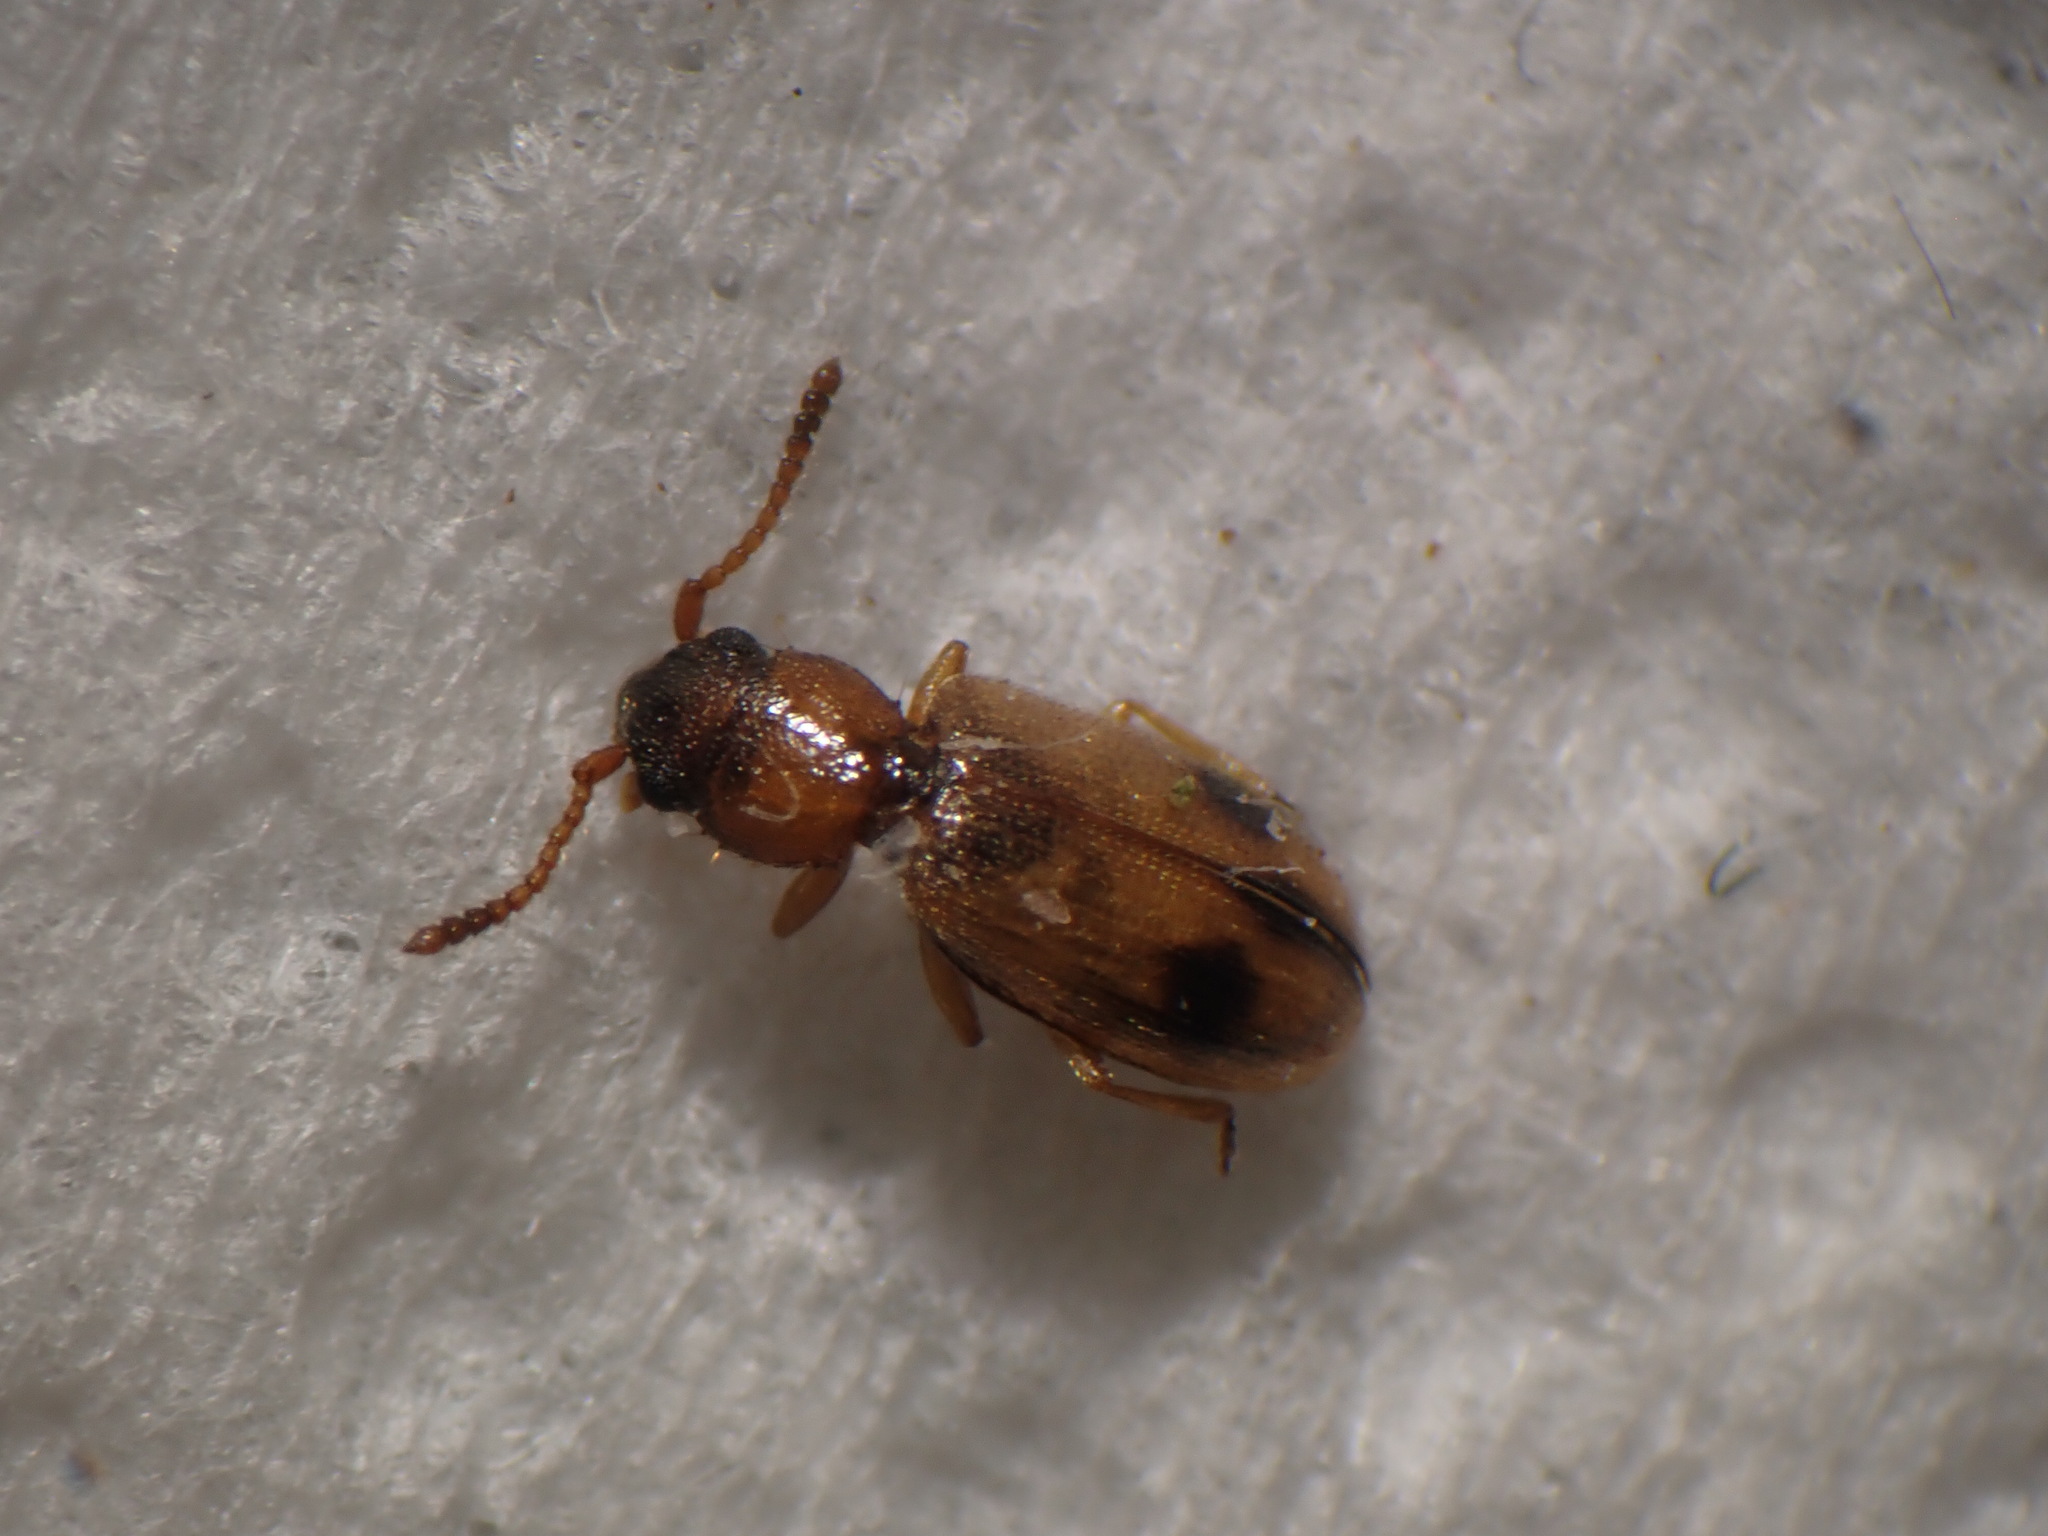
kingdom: Animalia
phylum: Arthropoda
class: Insecta
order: Coleoptera
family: Silvanidae
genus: Psammoecus
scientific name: Psammoecus bipunctatus
